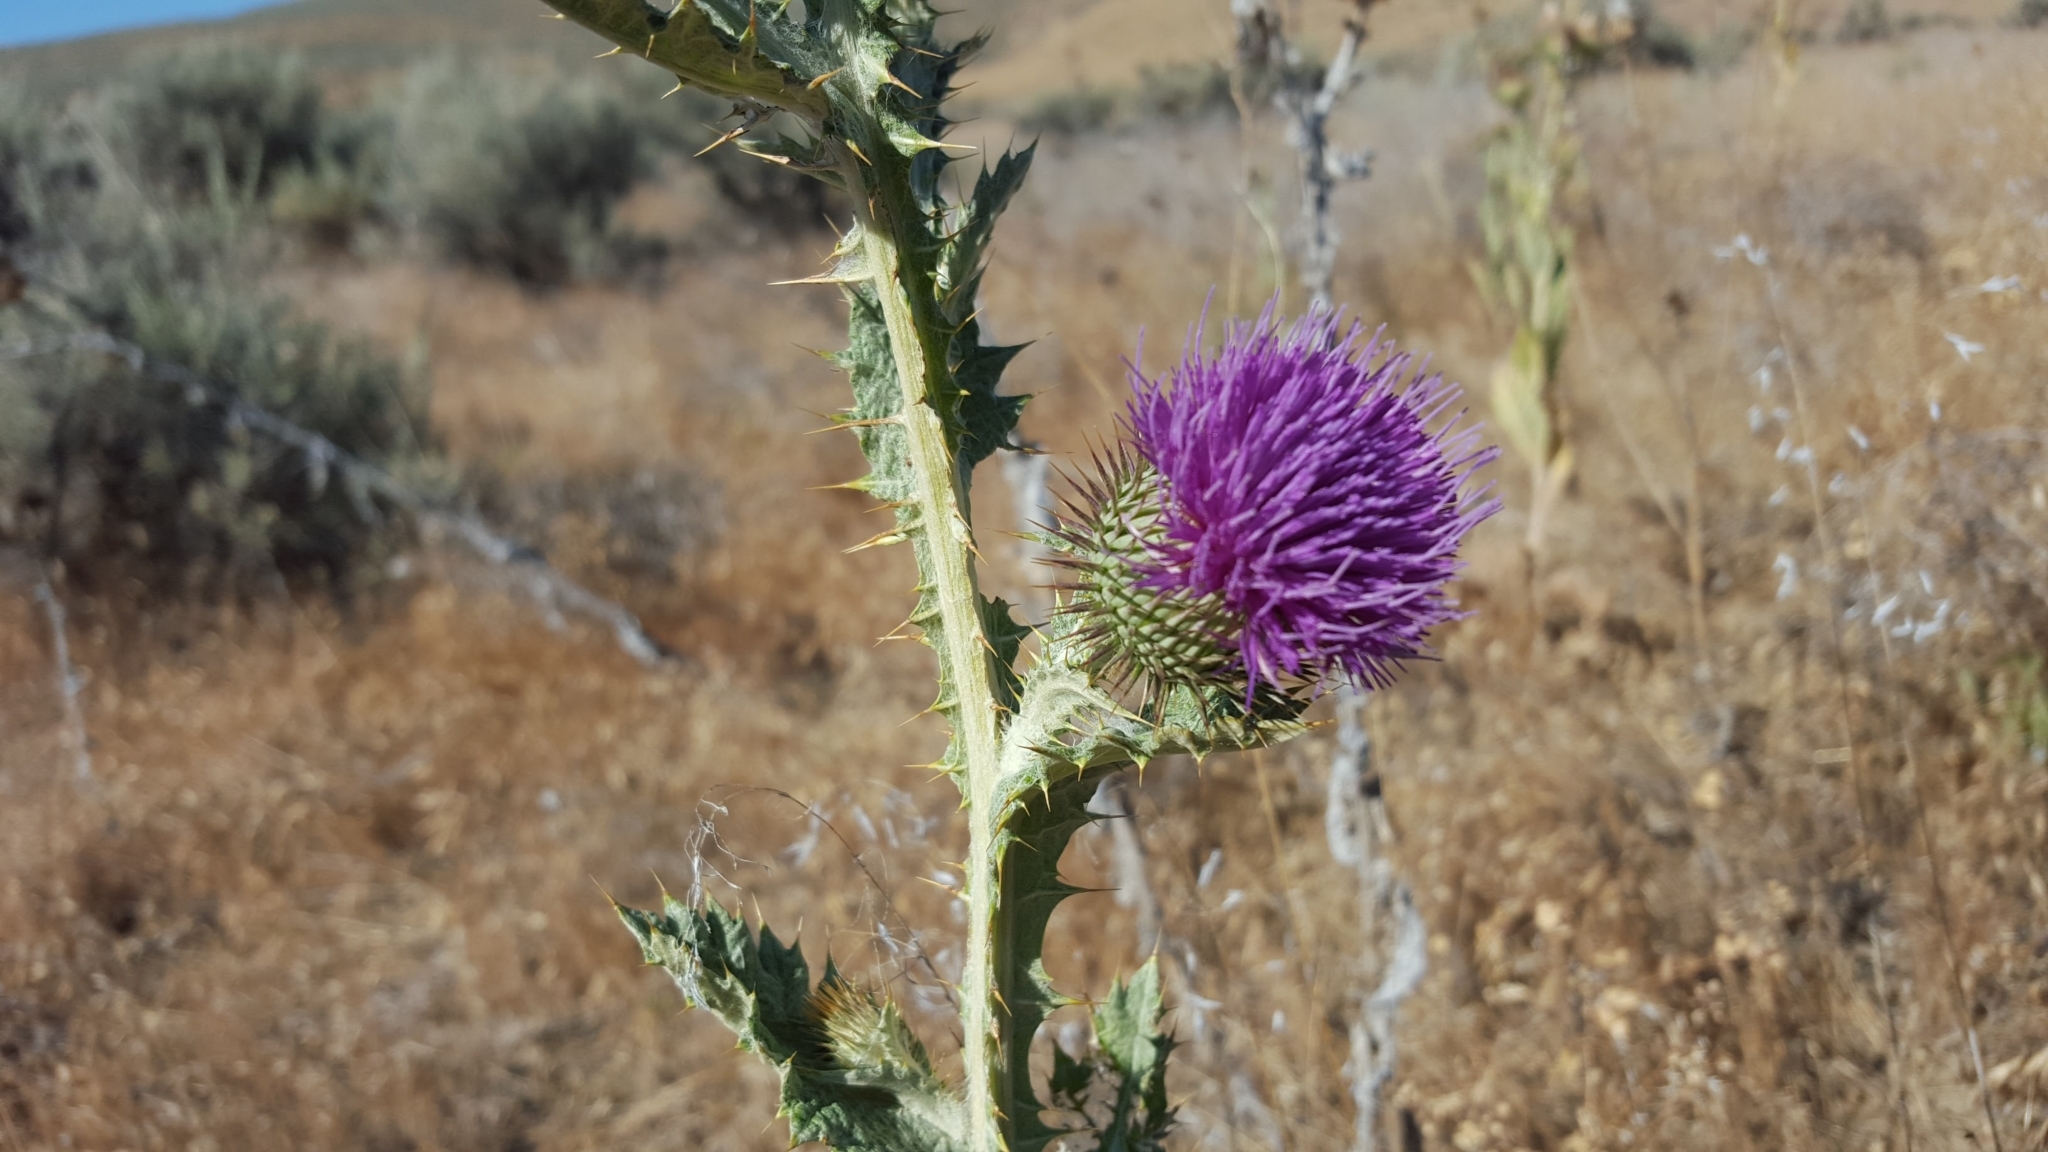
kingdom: Plantae
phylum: Tracheophyta
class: Magnoliopsida
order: Asterales
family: Asteraceae
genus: Onopordum
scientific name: Onopordum acanthium
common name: Scotch thistle
